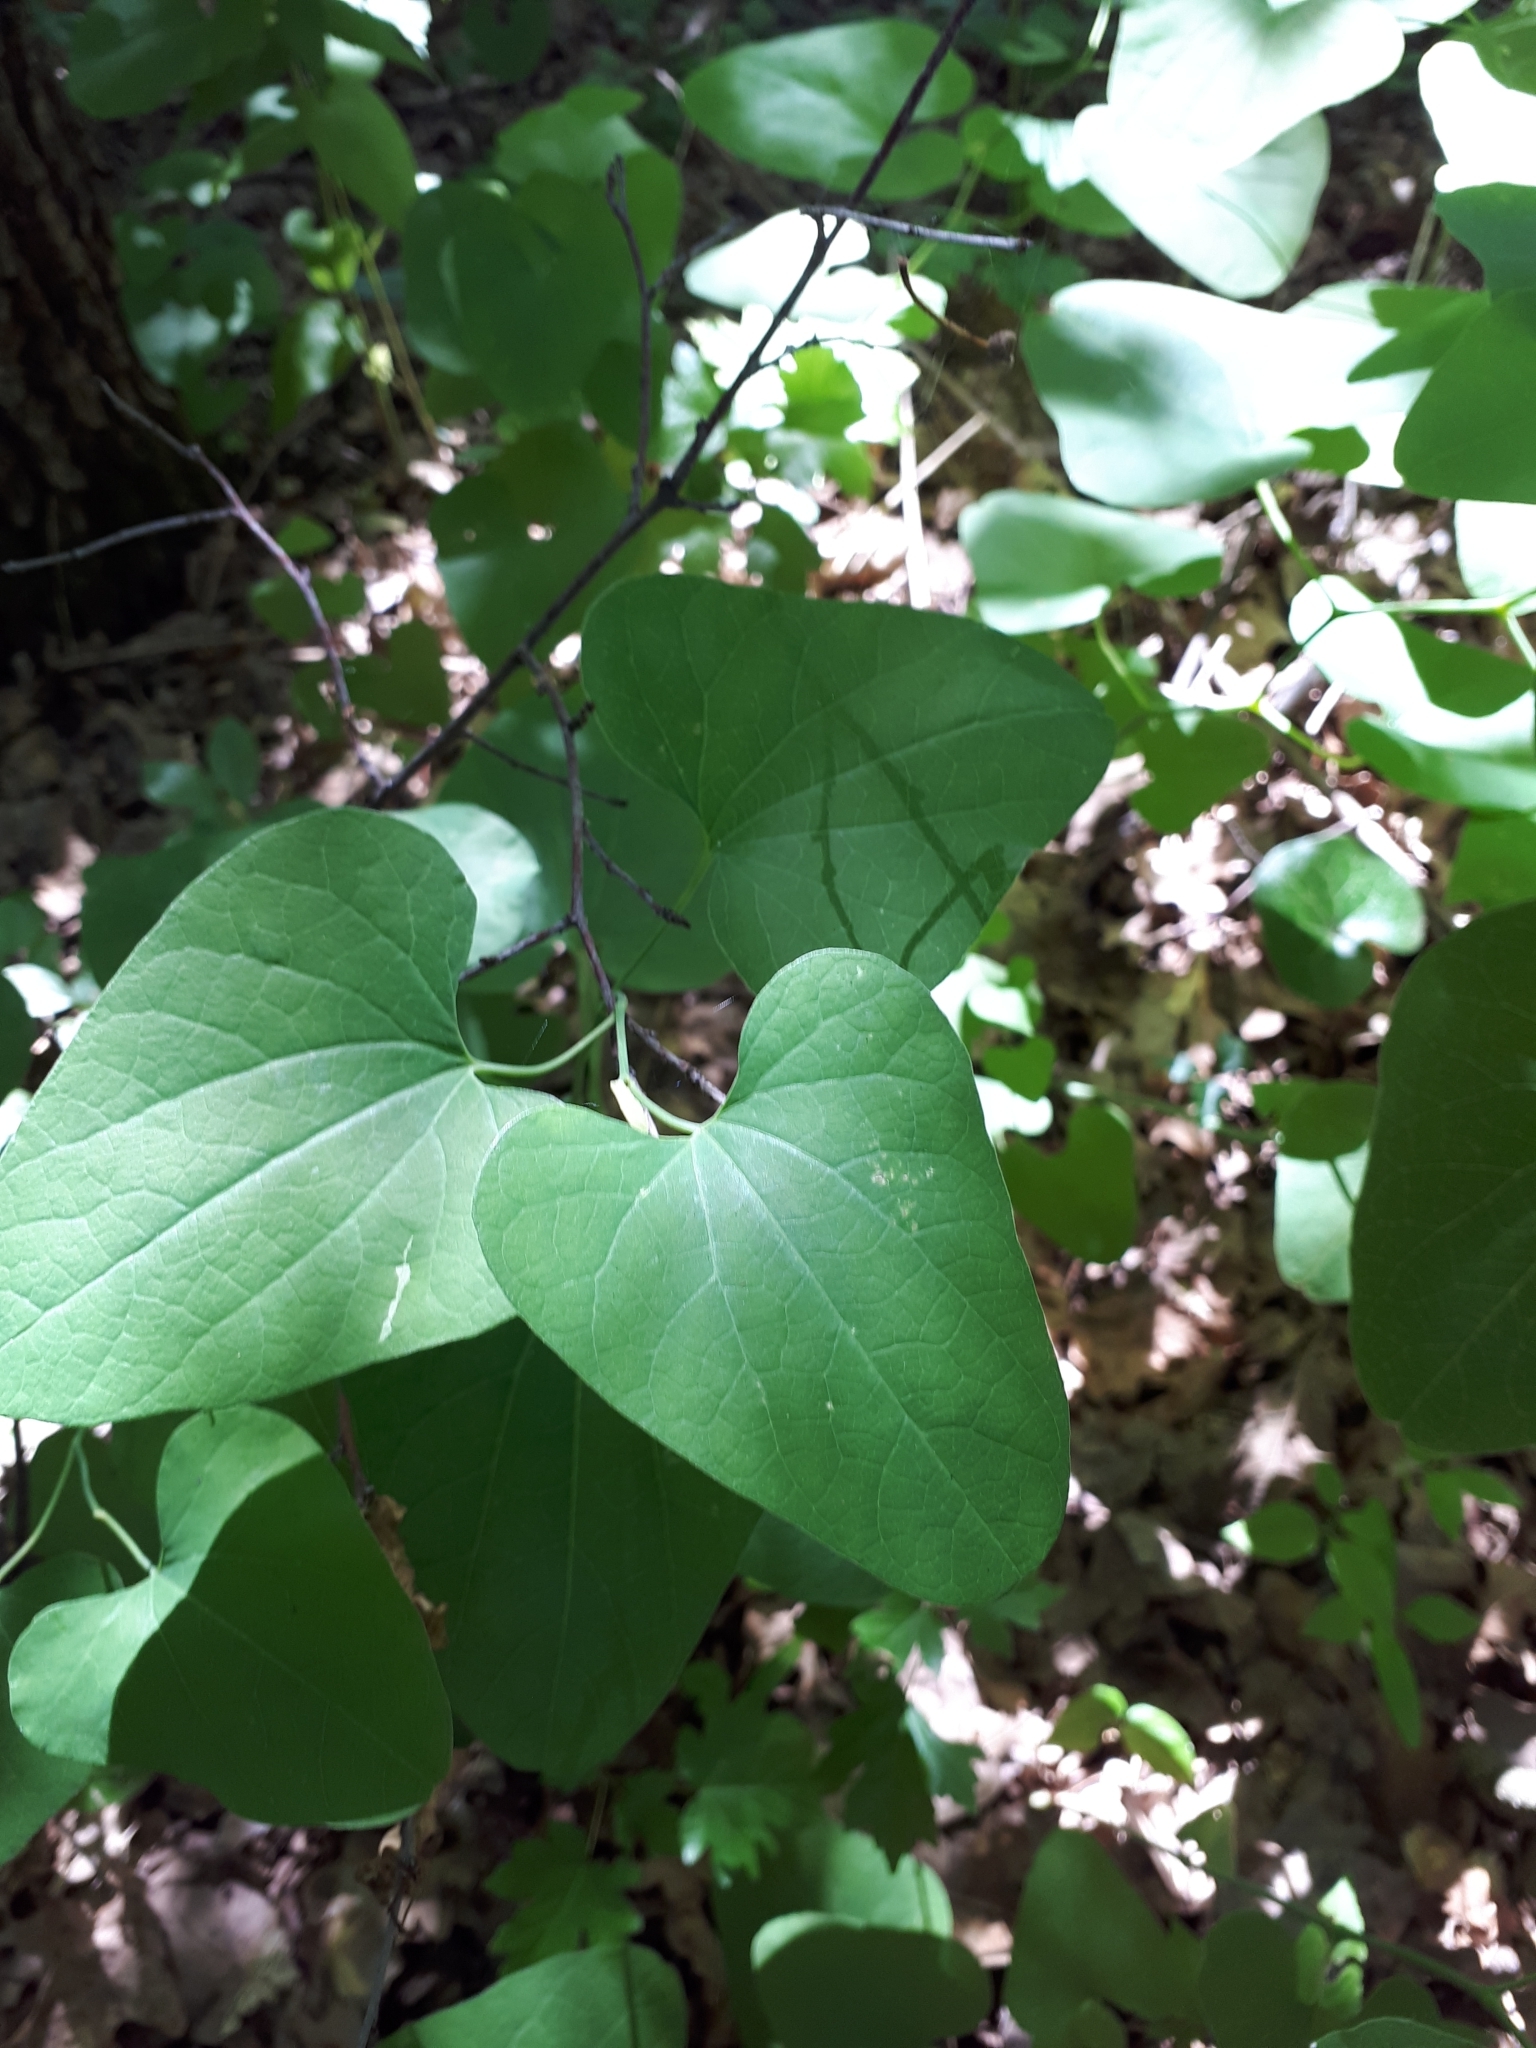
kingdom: Plantae
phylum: Tracheophyta
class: Magnoliopsida
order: Piperales
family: Aristolochiaceae
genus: Aristolochia
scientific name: Aristolochia clematitis
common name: Birthwort
